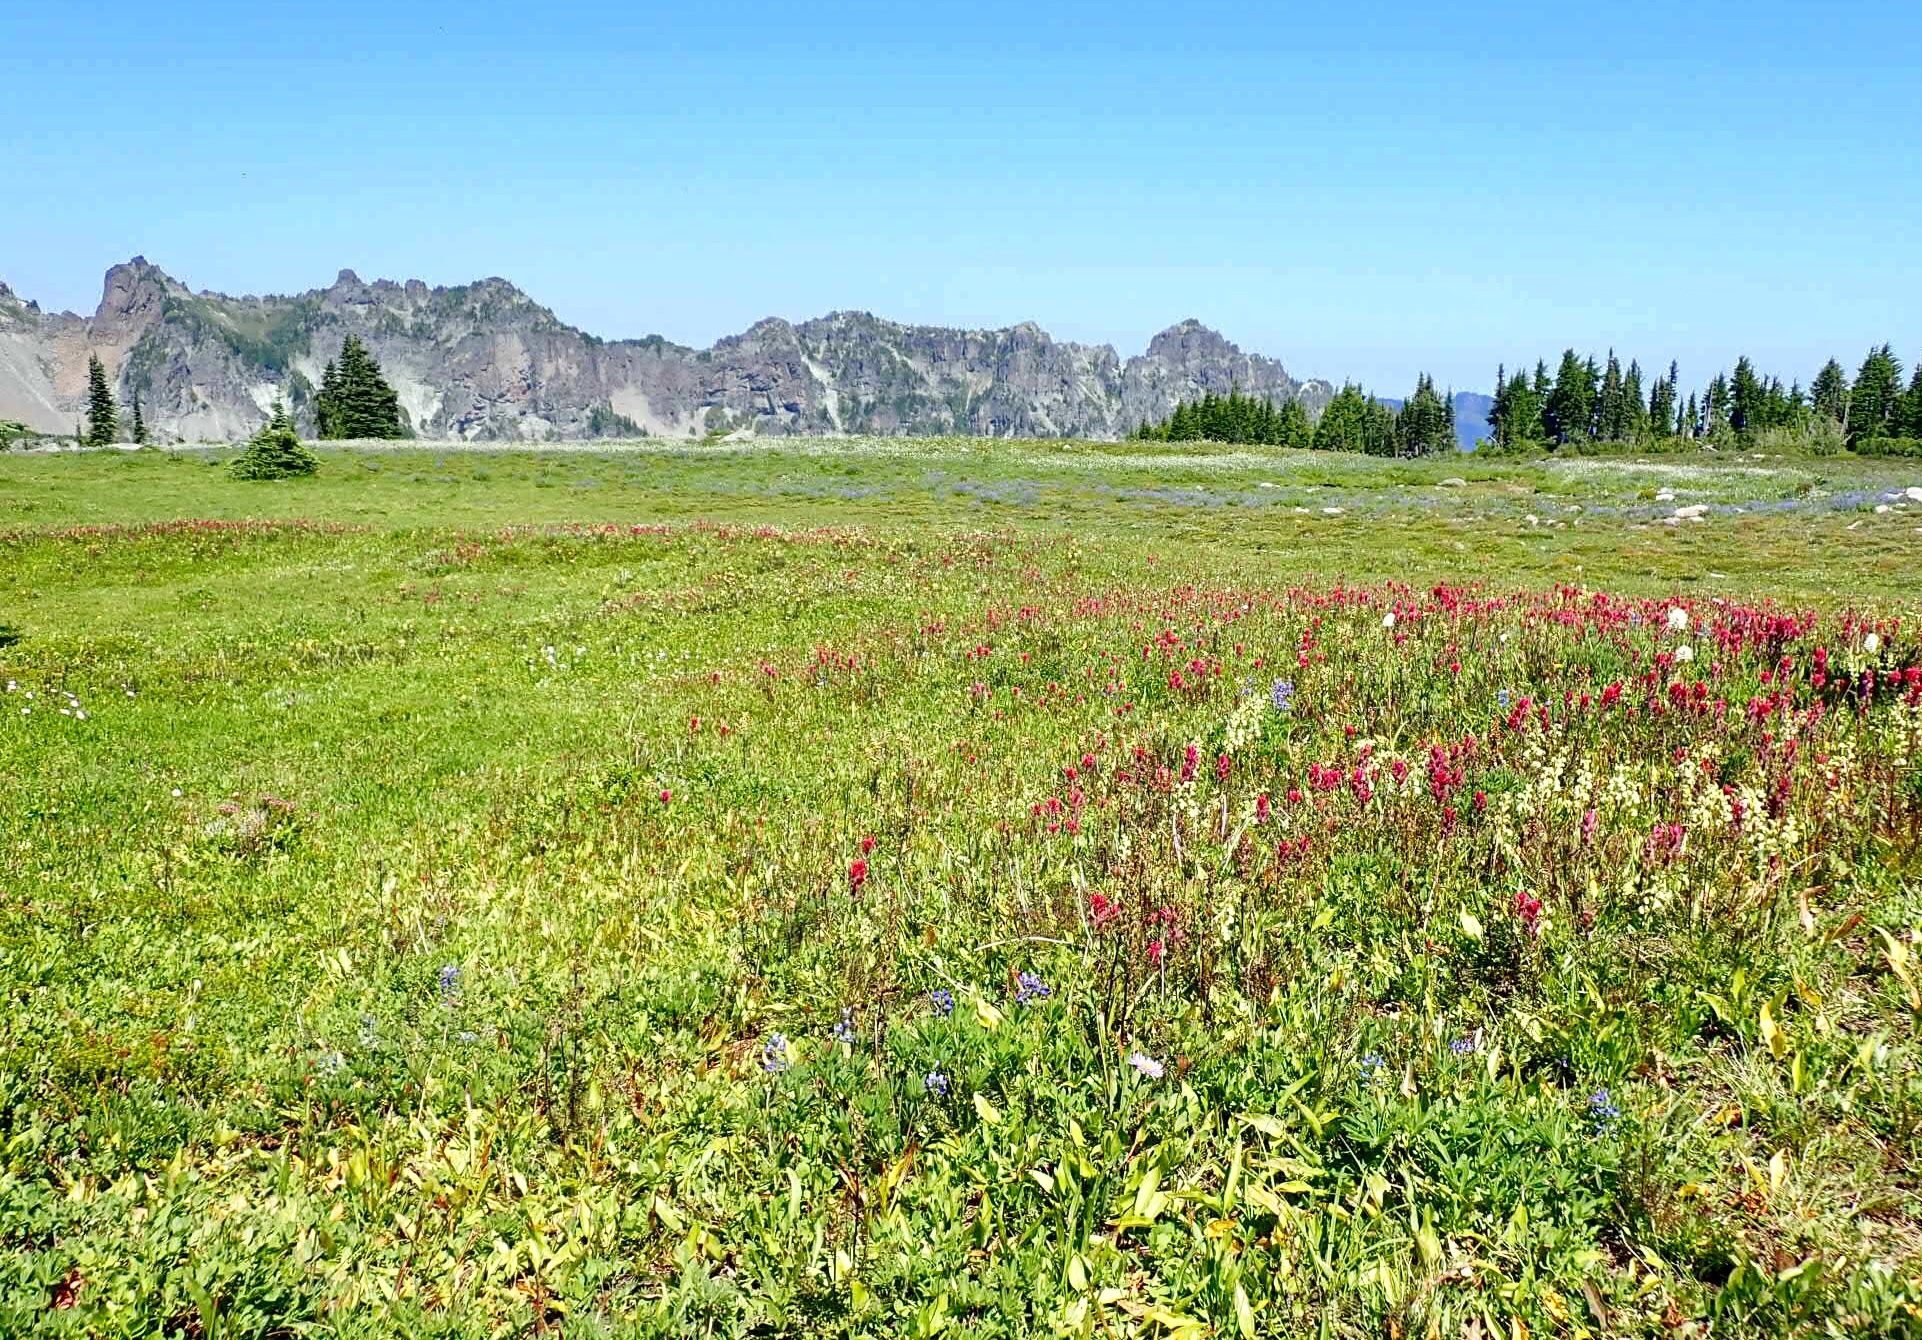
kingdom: Plantae
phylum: Tracheophyta
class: Magnoliopsida
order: Lamiales
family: Orobanchaceae
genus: Castilleja
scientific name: Castilleja parviflora
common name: Mountain paintbrush
